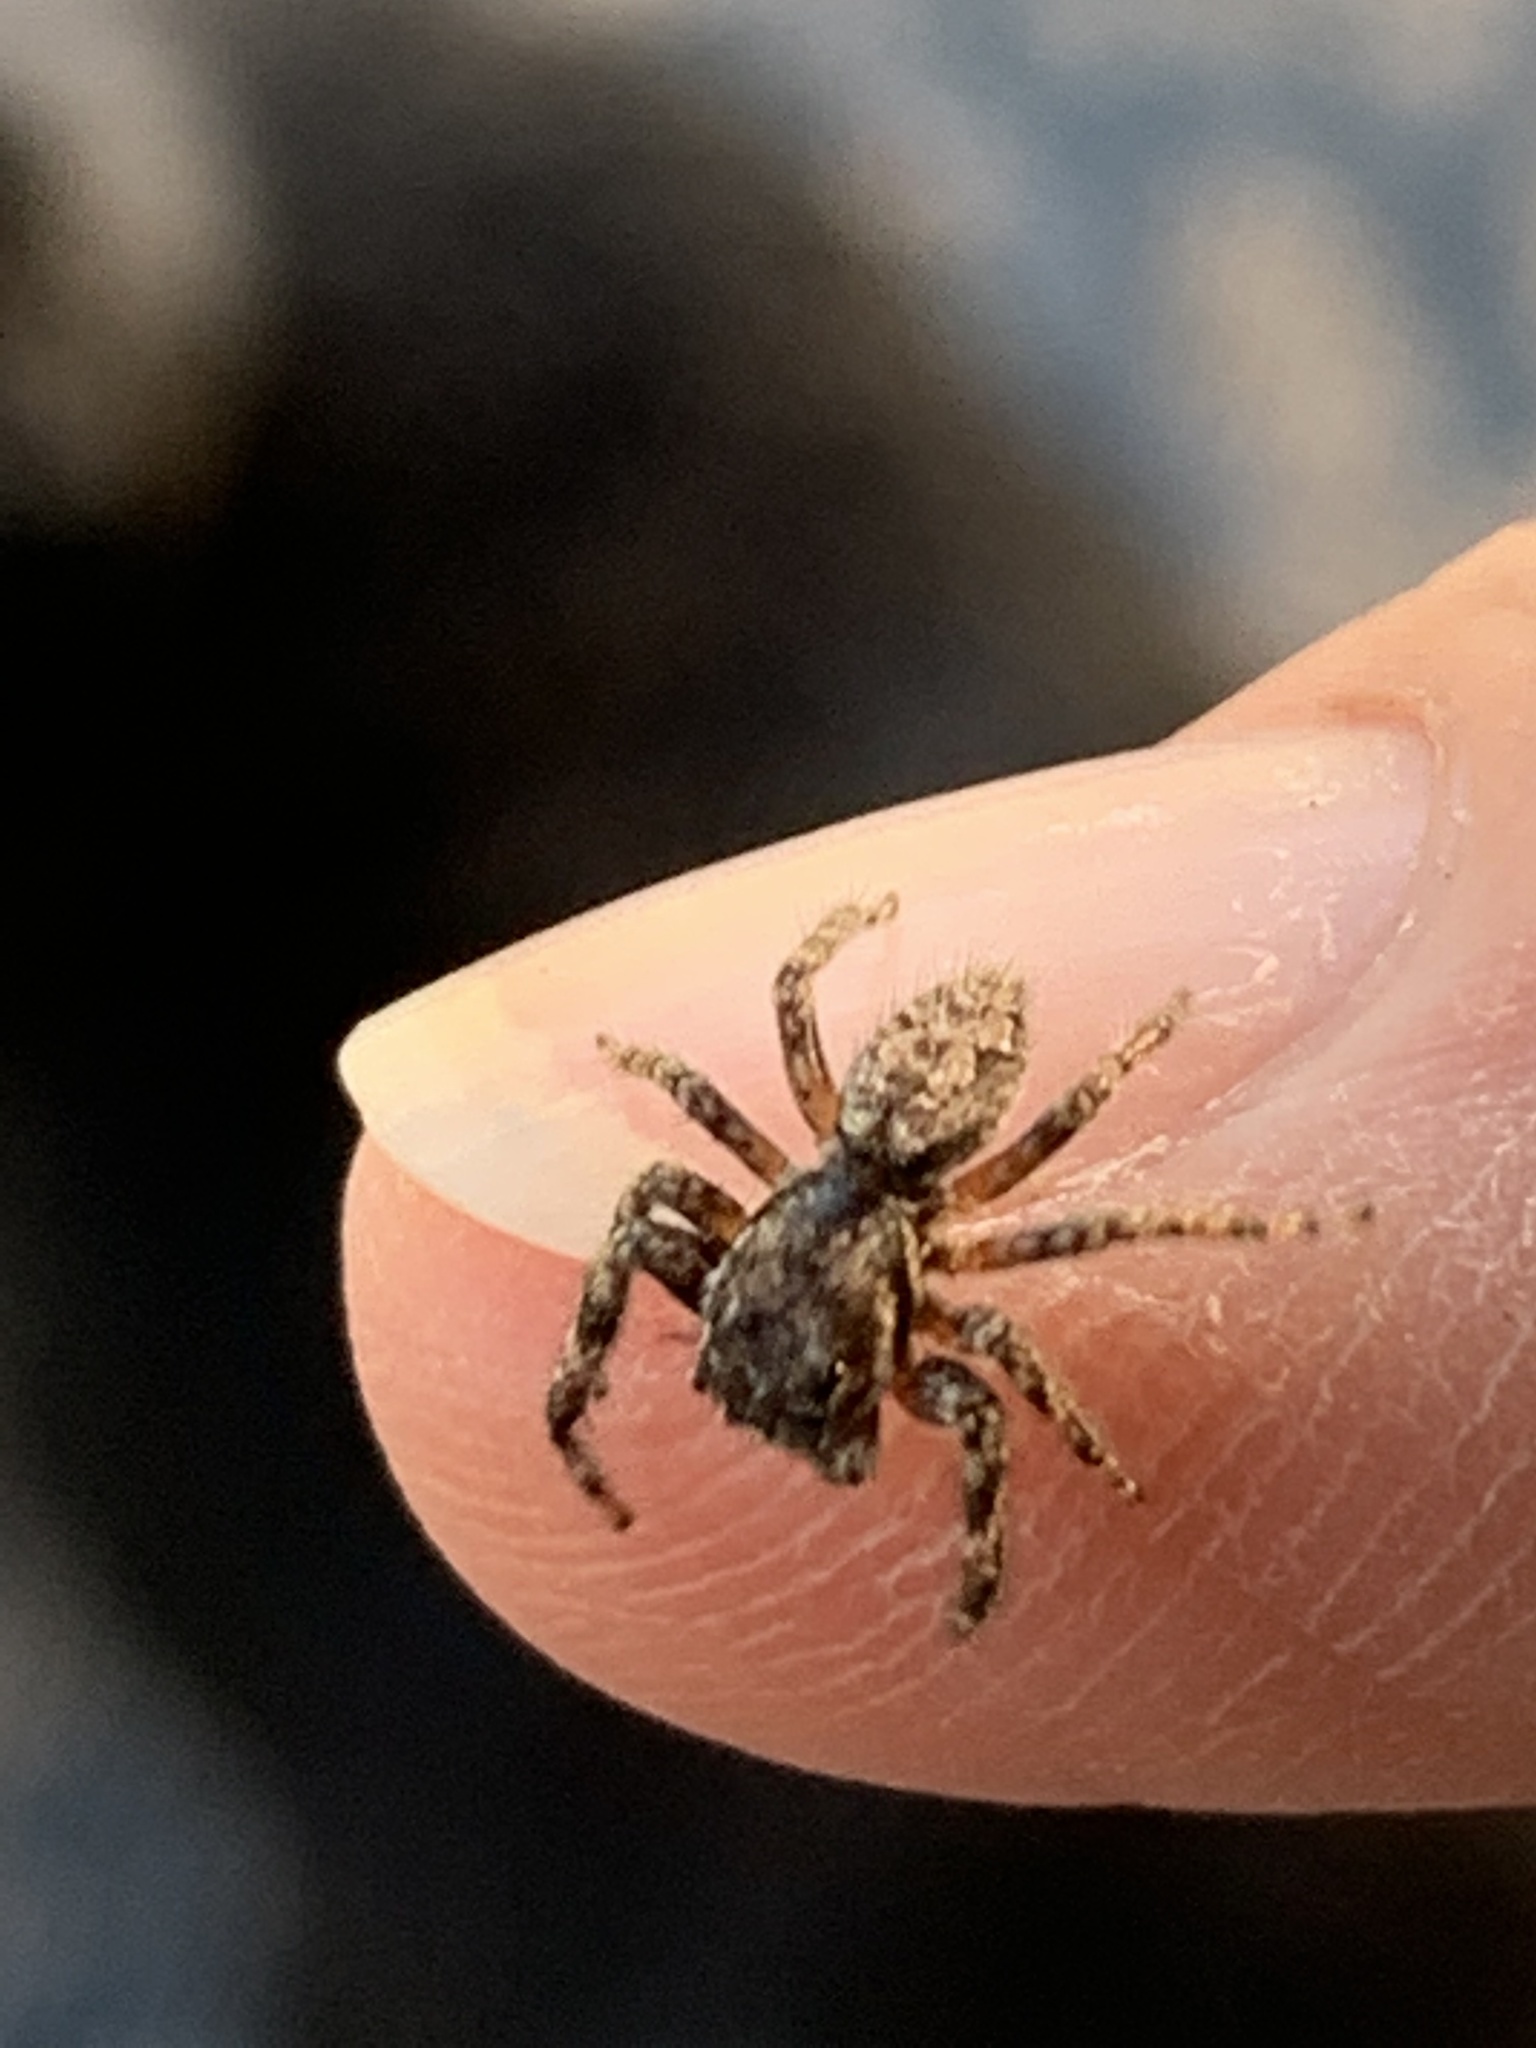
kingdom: Animalia
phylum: Arthropoda
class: Arachnida
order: Araneae
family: Salticidae
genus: Platycryptus
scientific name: Platycryptus undatus
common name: Tan jumping spider
